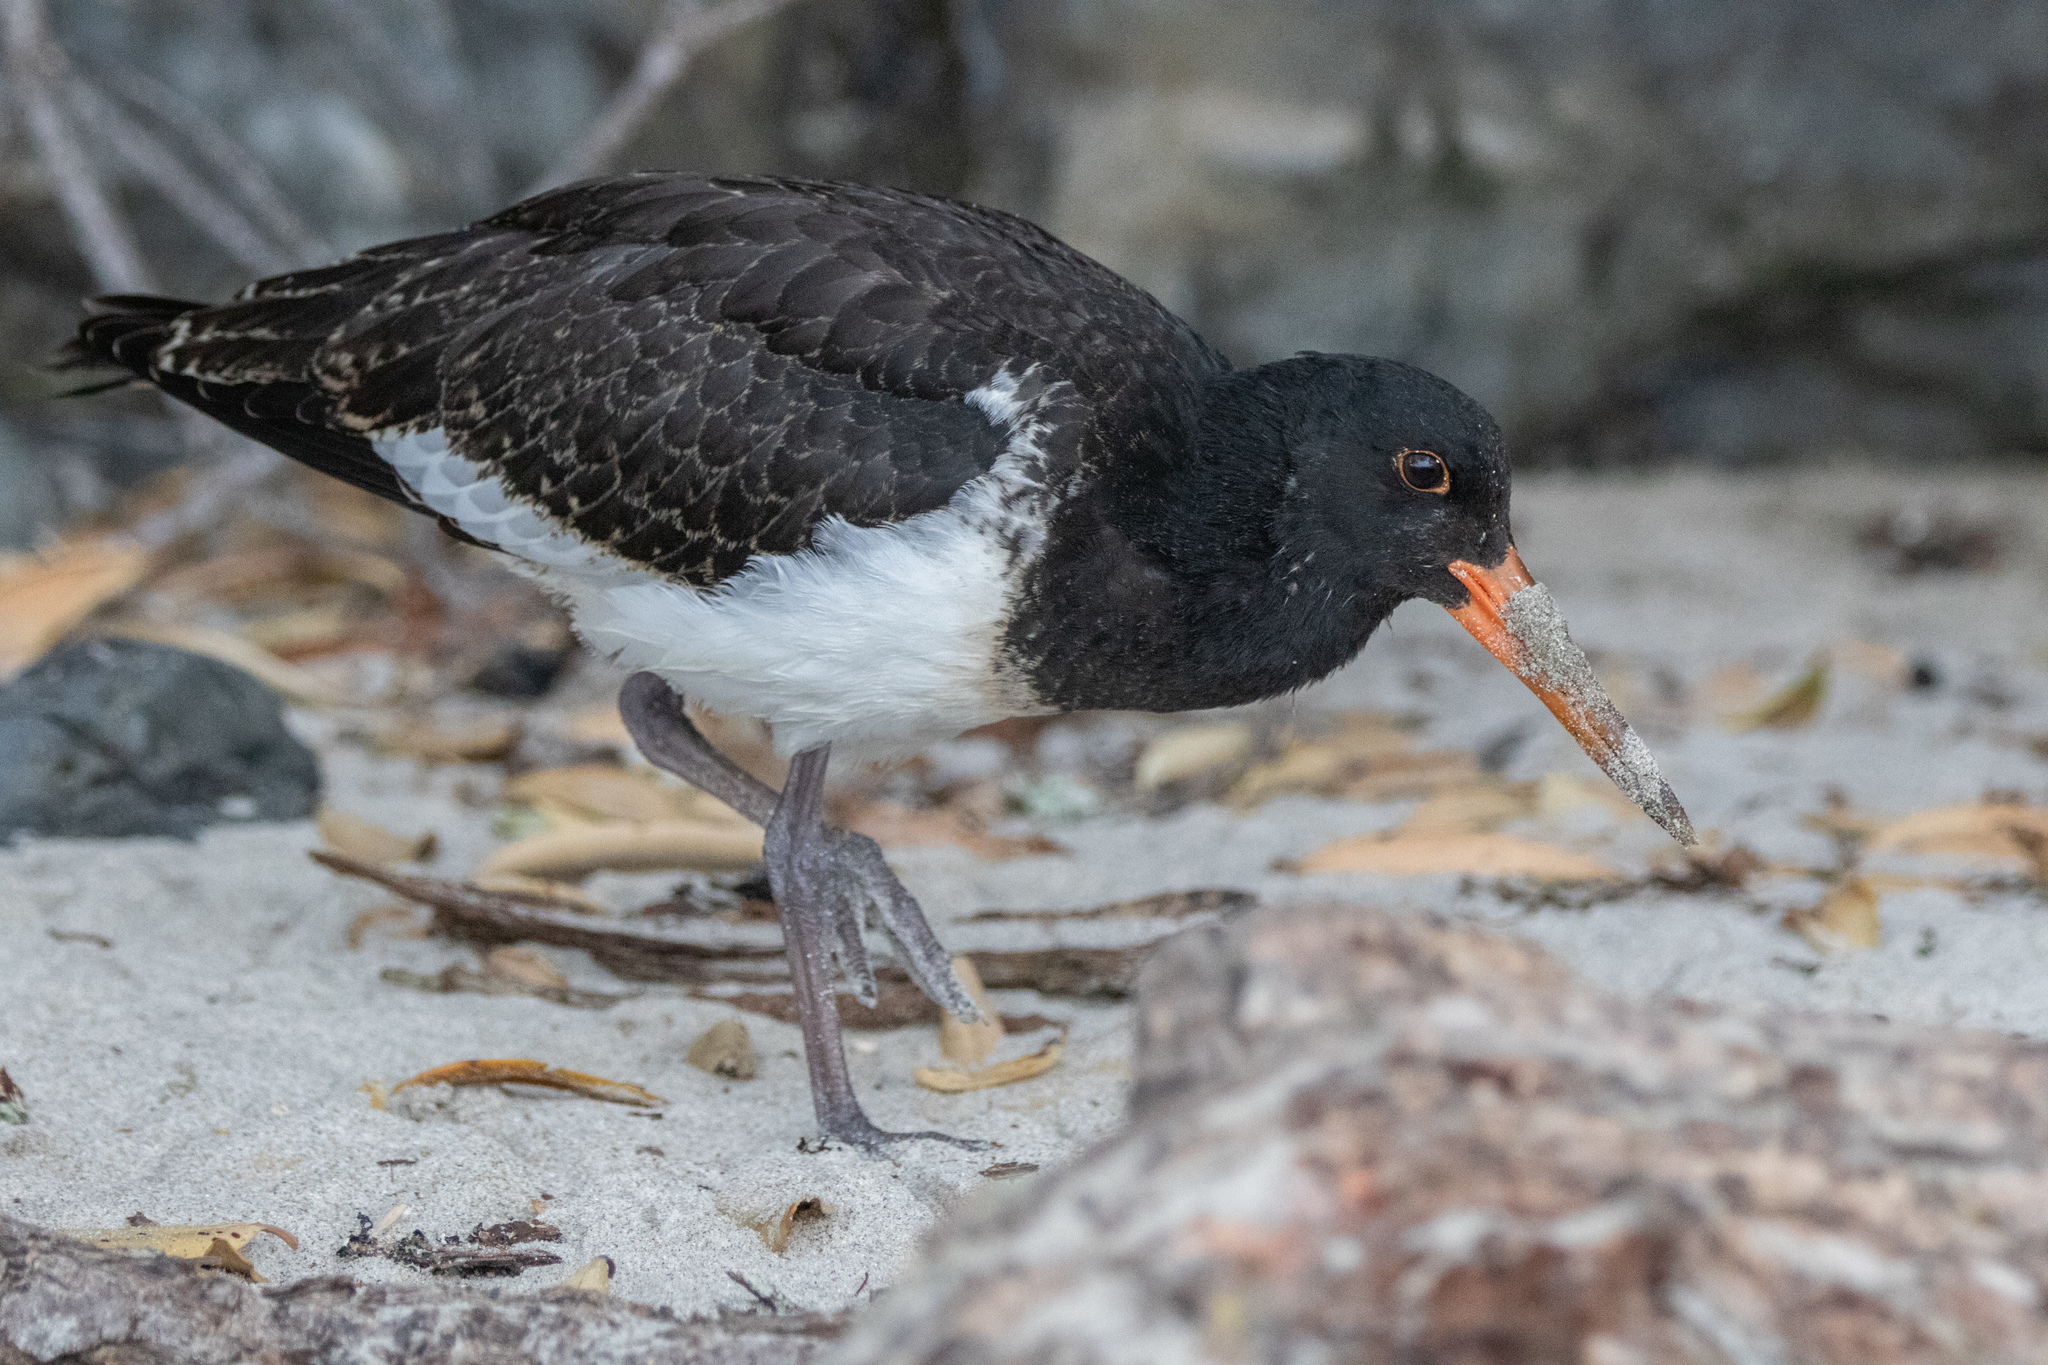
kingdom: Animalia
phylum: Chordata
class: Aves
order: Charadriiformes
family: Haematopodidae
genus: Haematopus
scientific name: Haematopus unicolor
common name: Variable oystercatcher
